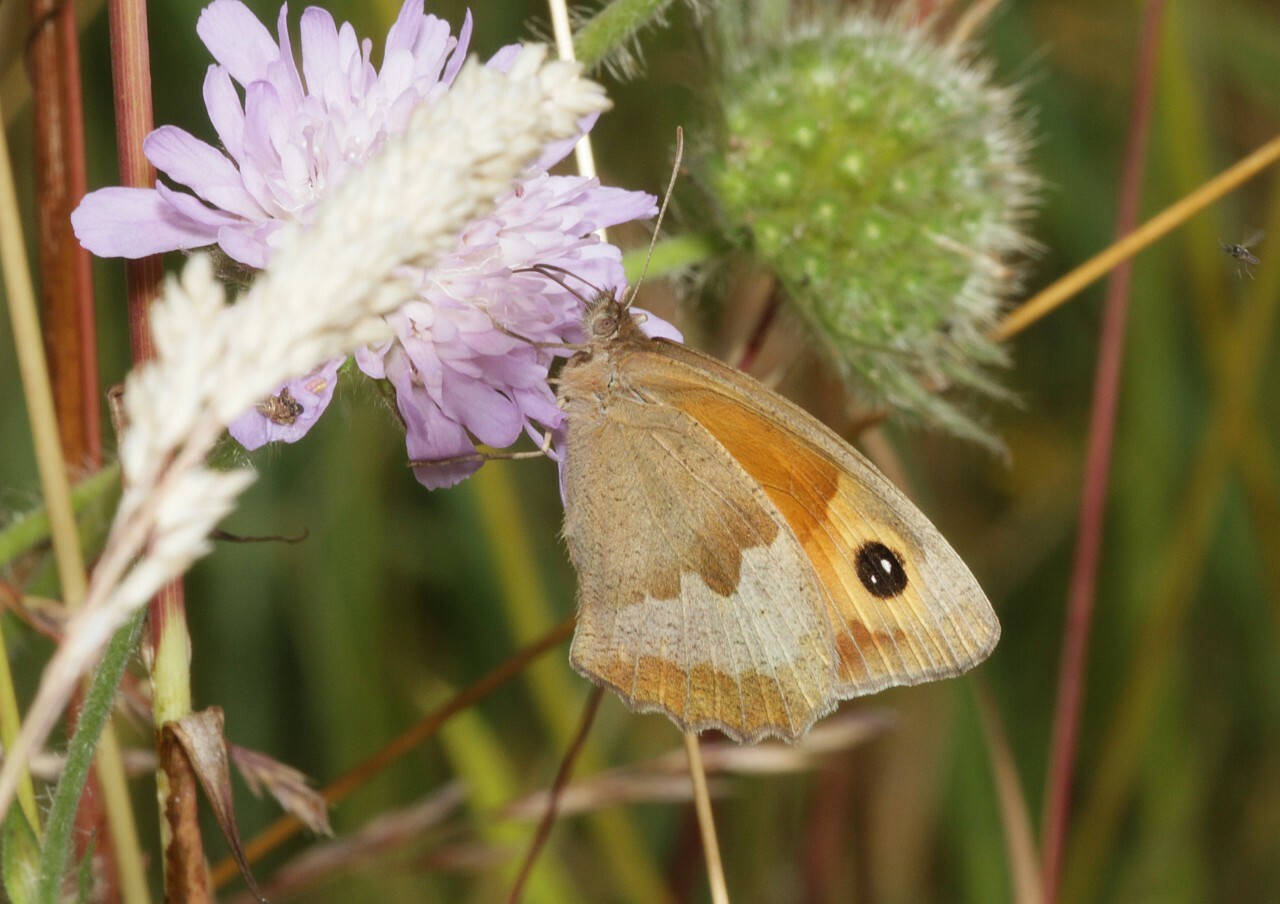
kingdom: Animalia
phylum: Arthropoda
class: Insecta
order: Lepidoptera
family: Nymphalidae
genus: Maniola
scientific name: Maniola jurtina
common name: Meadow brown
